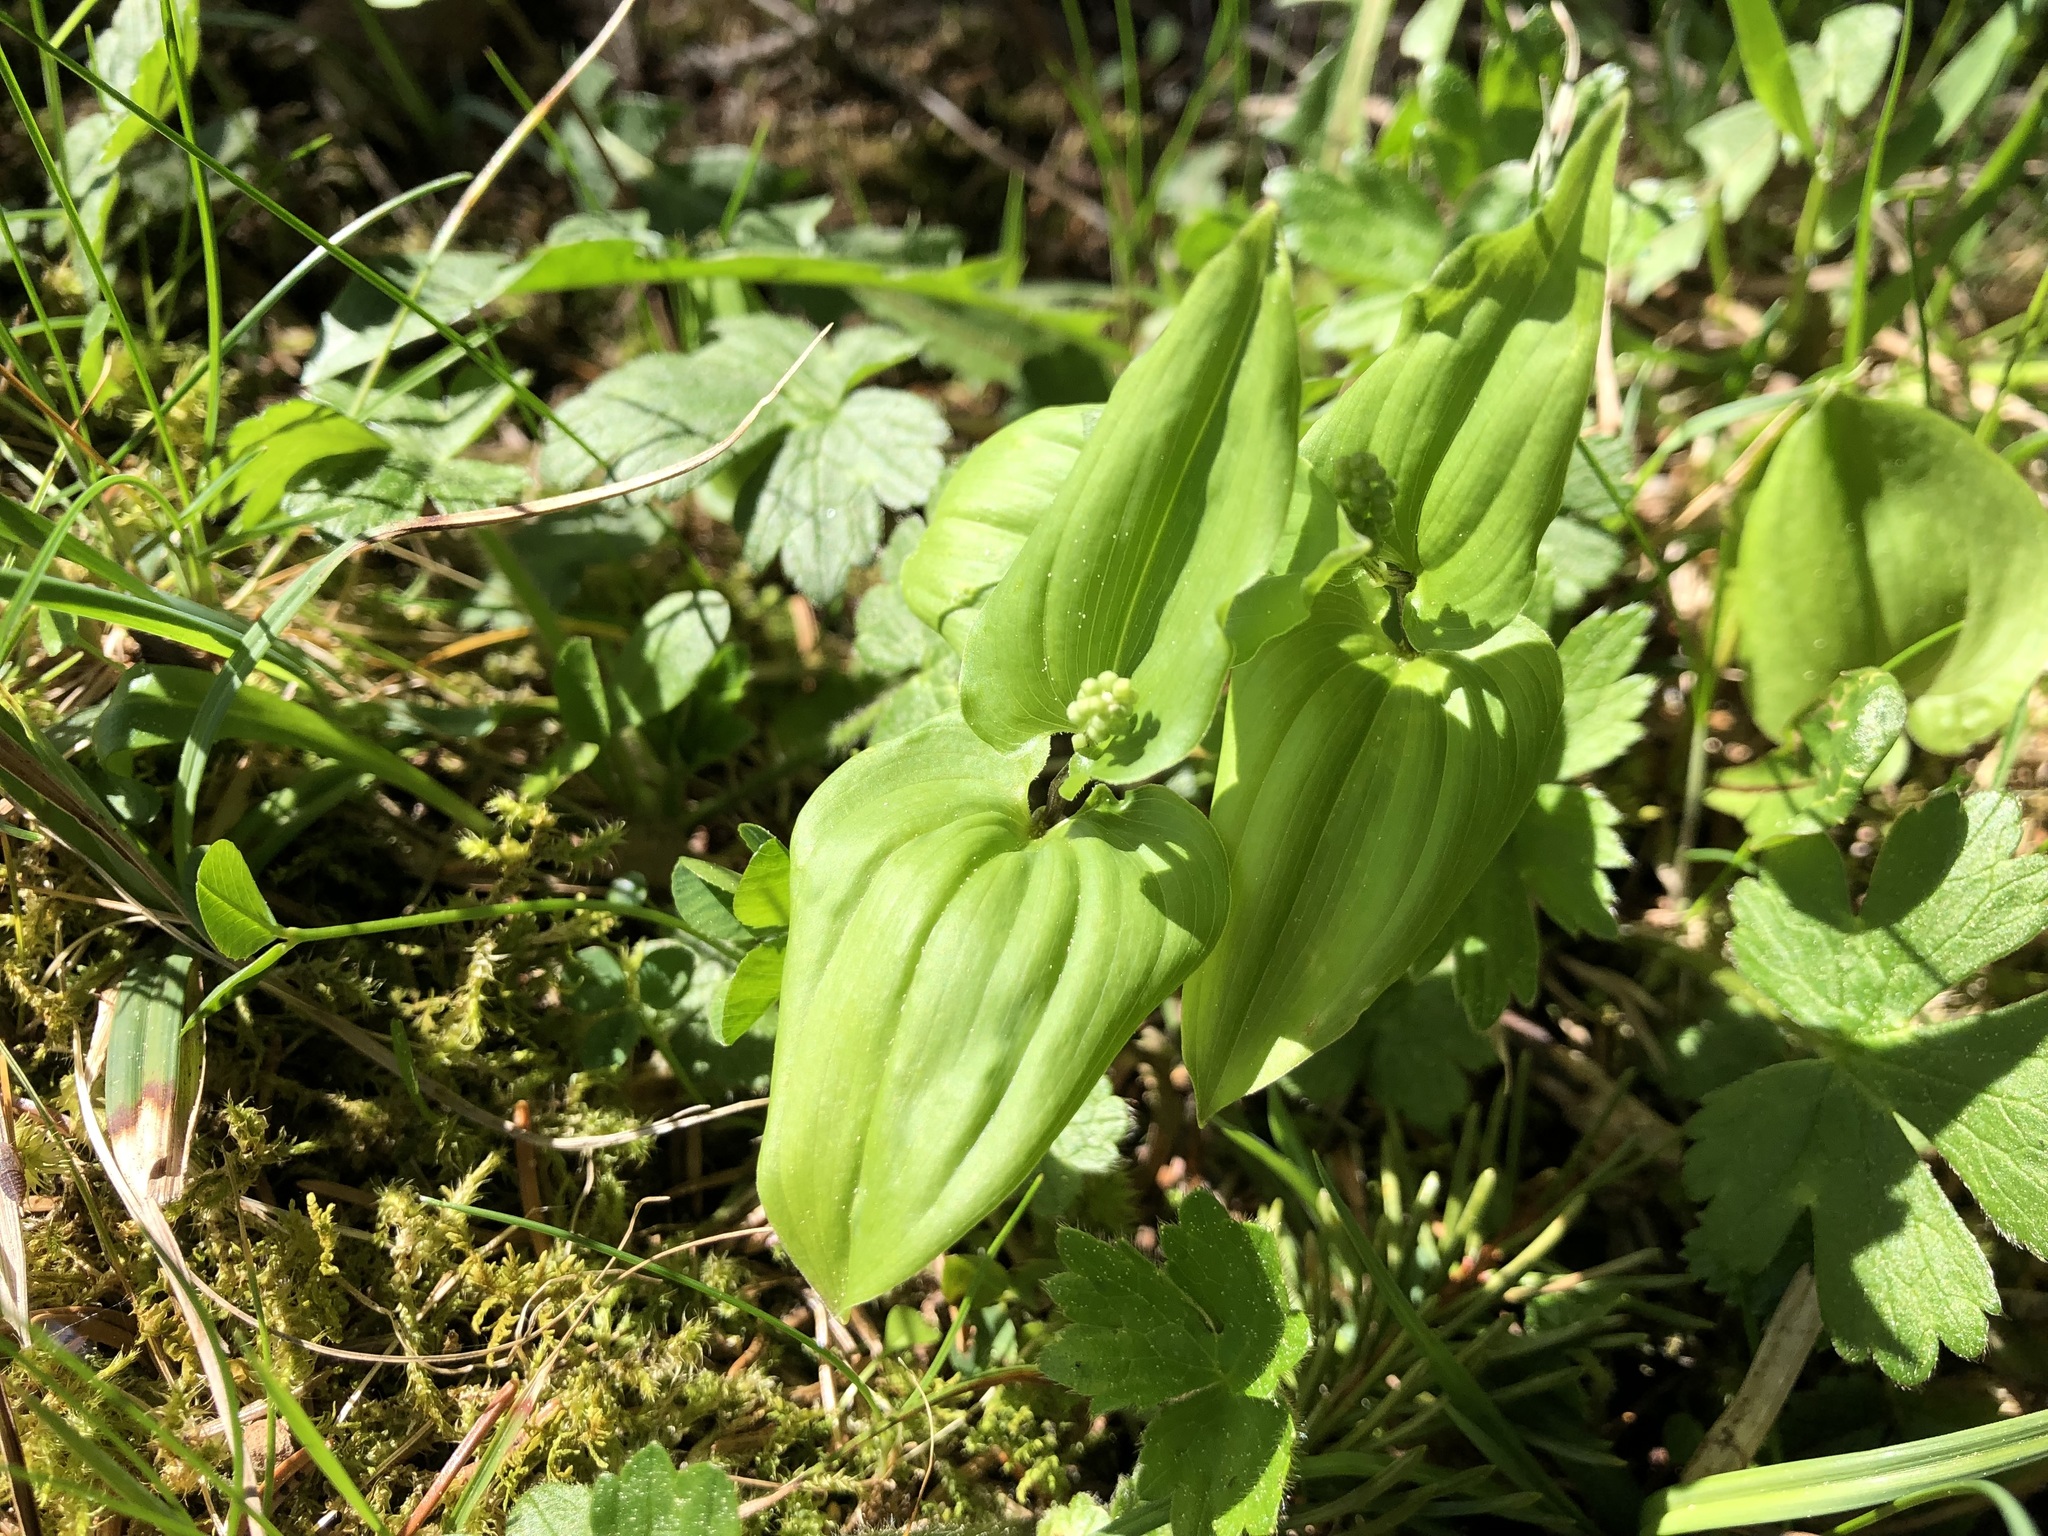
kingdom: Plantae
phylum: Tracheophyta
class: Liliopsida
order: Asparagales
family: Asparagaceae
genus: Maianthemum
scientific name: Maianthemum bifolium
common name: May lily
